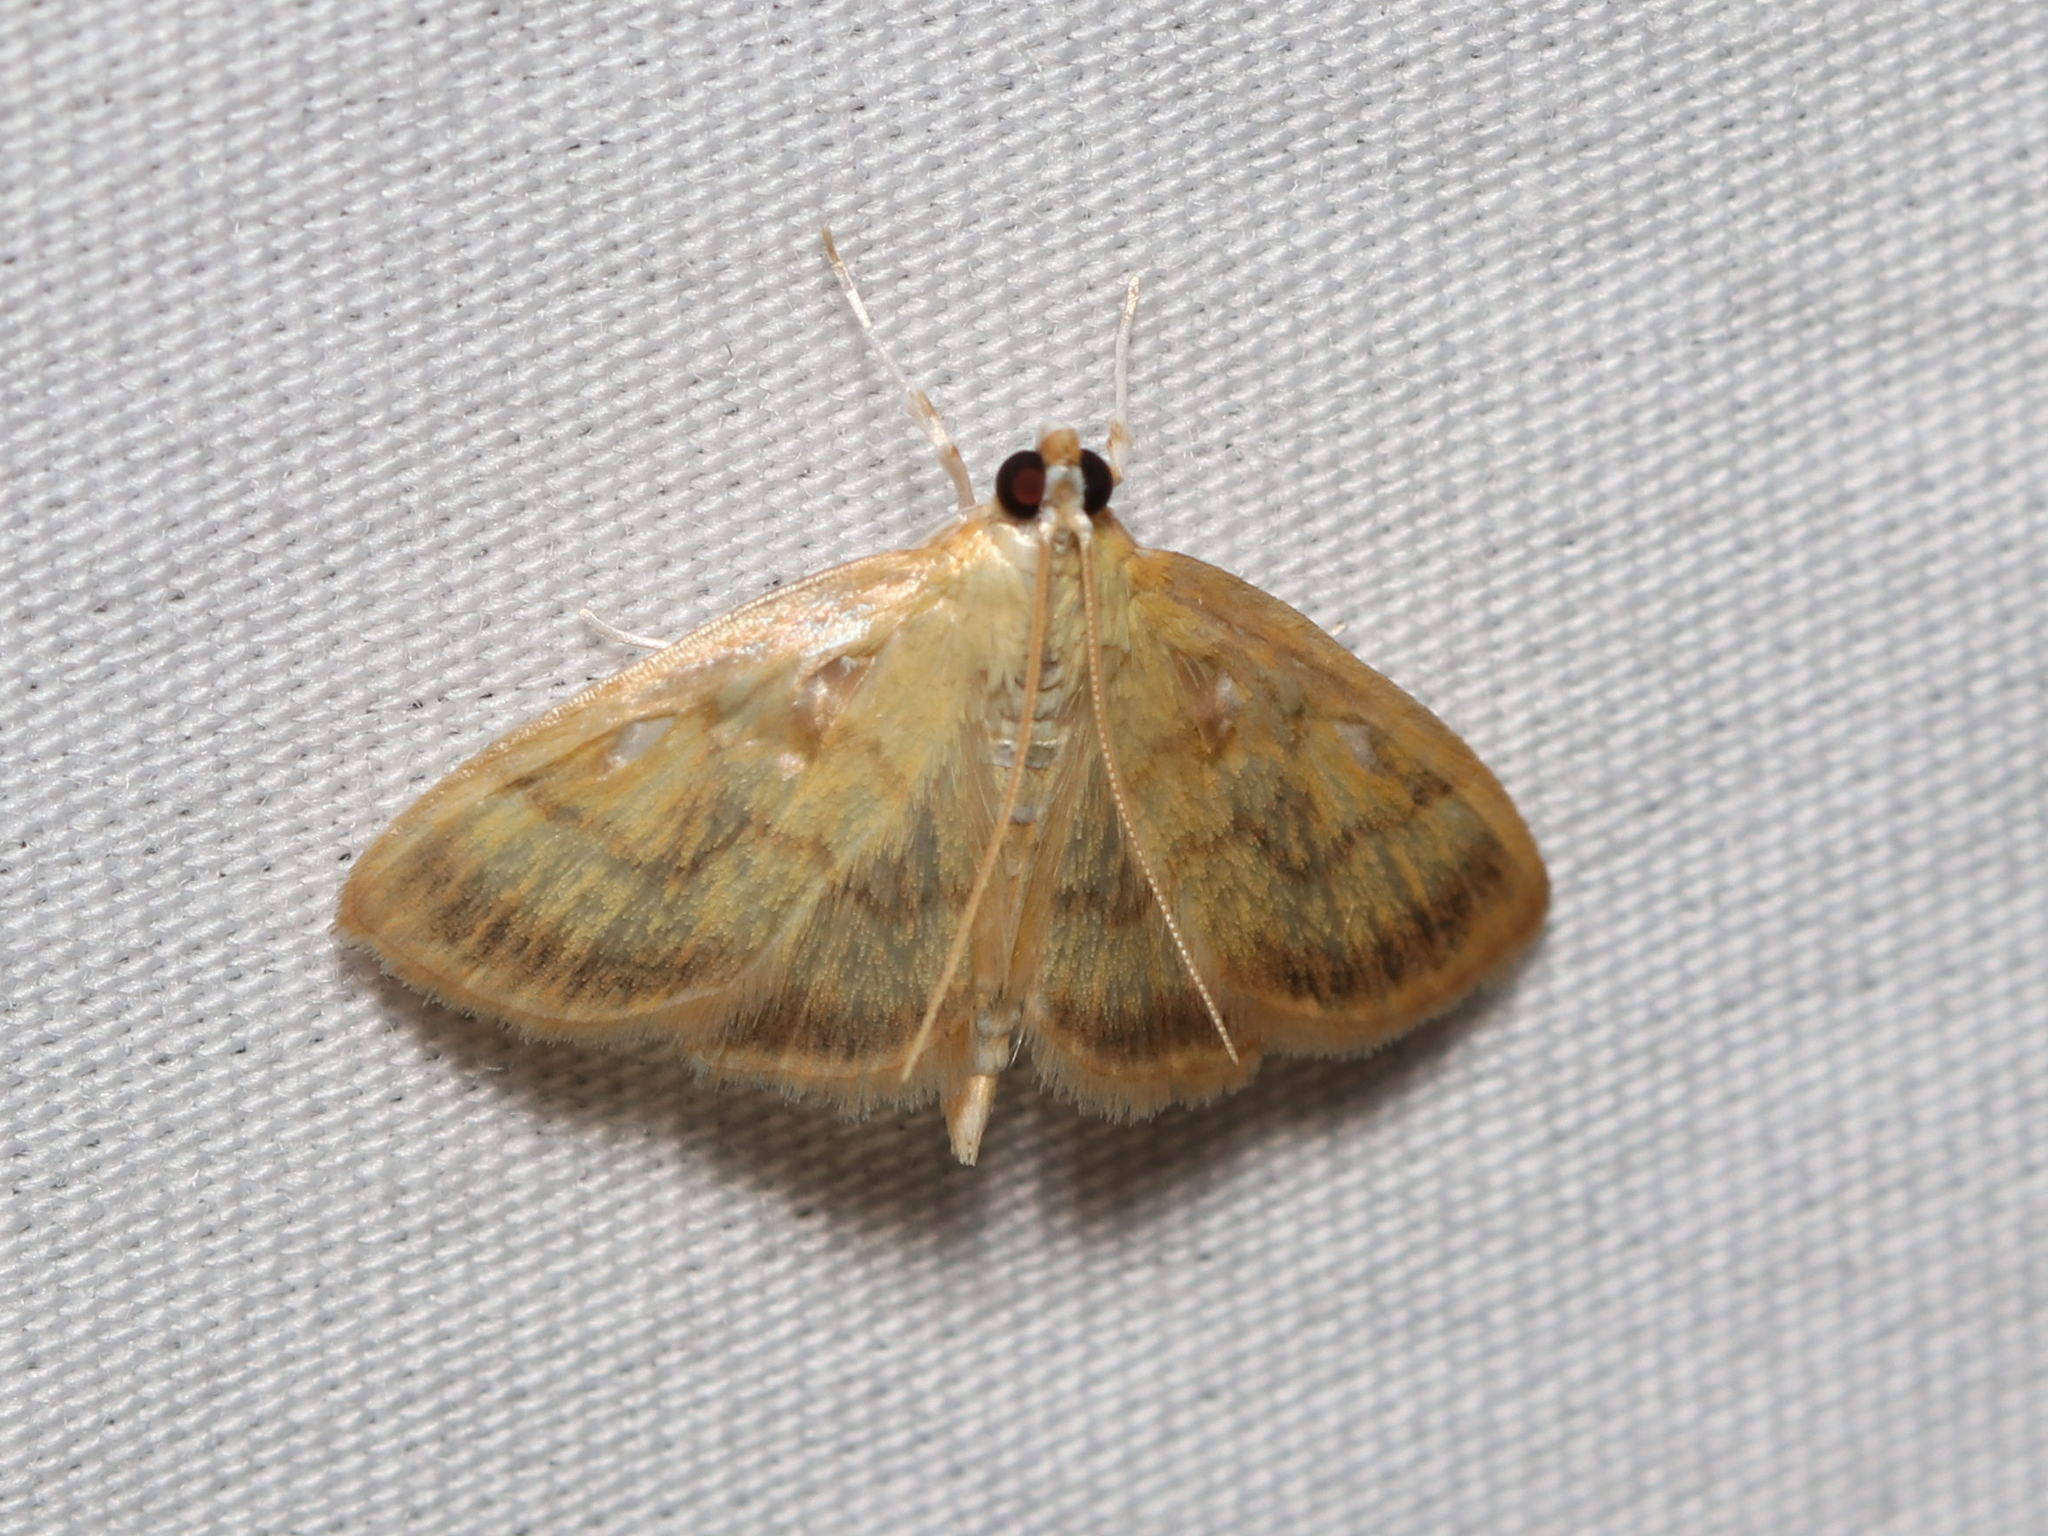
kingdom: Animalia
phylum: Arthropoda
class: Insecta
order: Lepidoptera
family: Crambidae
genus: Crocidophora
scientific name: Crocidophora tuberculalis
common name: Pale-winged crocidiphora moth
